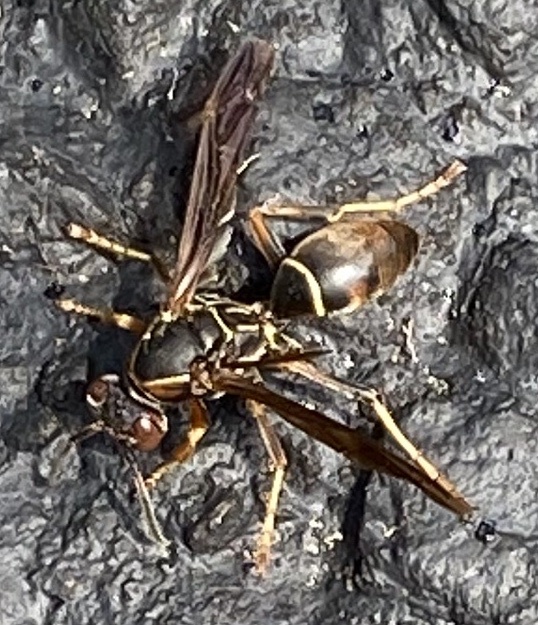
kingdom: Animalia
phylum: Arthropoda
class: Insecta
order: Hymenoptera
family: Eumenidae
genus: Polistes
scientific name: Polistes fuscatus
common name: Dark paper wasp
